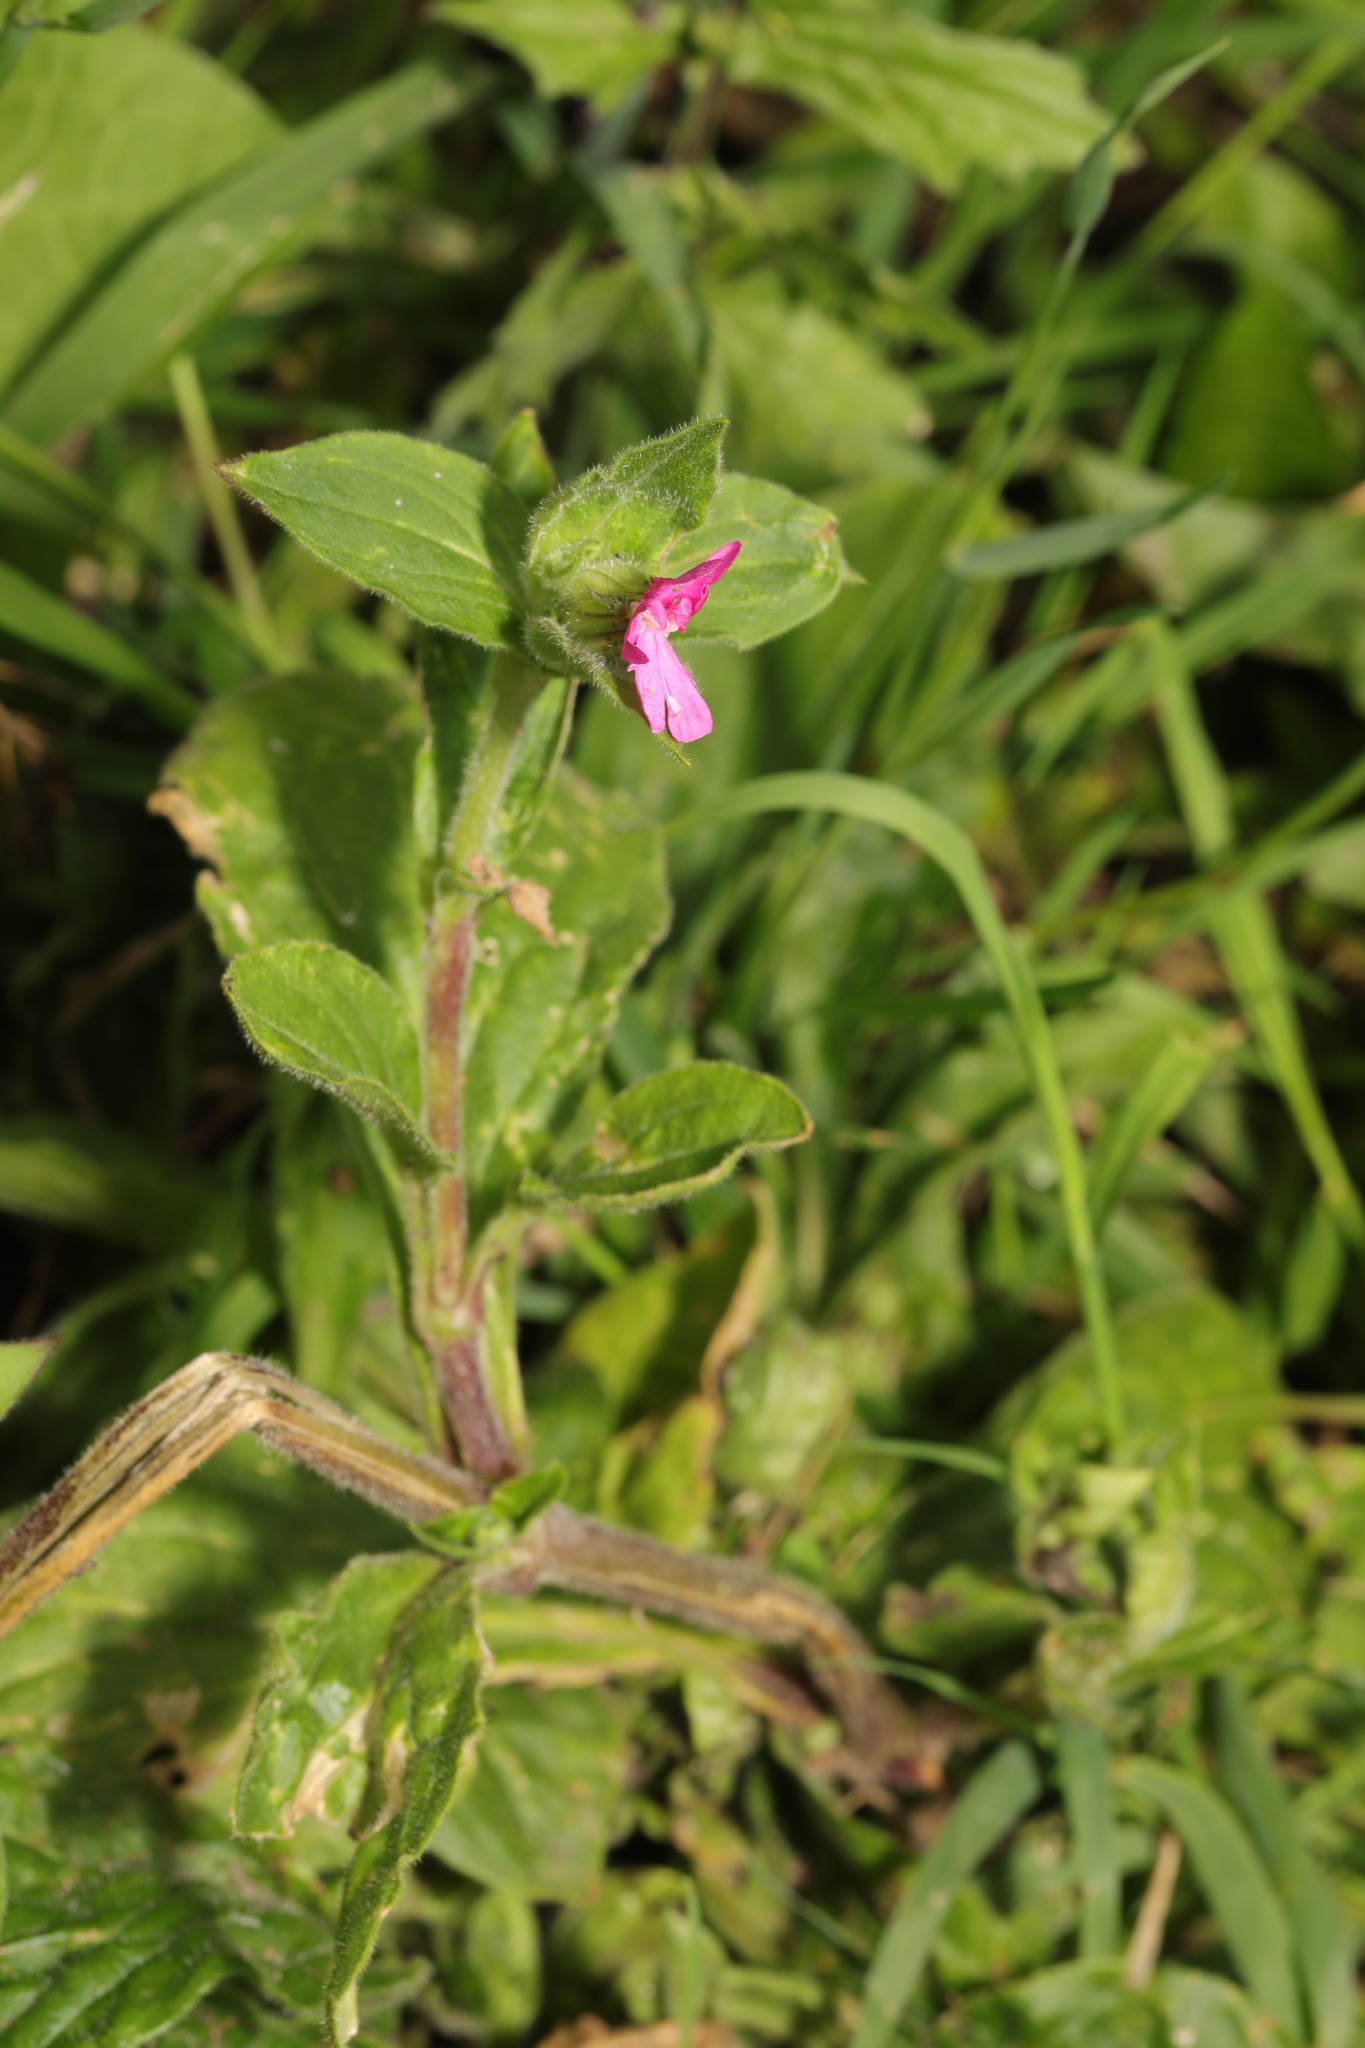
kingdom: Plantae
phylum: Tracheophyta
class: Magnoliopsida
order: Caryophyllales
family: Caryophyllaceae
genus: Silene
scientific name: Silene dioica
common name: Red campion
